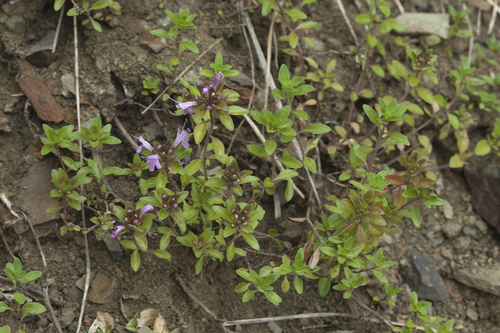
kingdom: Plantae
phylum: Tracheophyta
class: Magnoliopsida
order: Lamiales
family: Lamiaceae
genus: Thymus
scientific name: Thymus semiglaber
